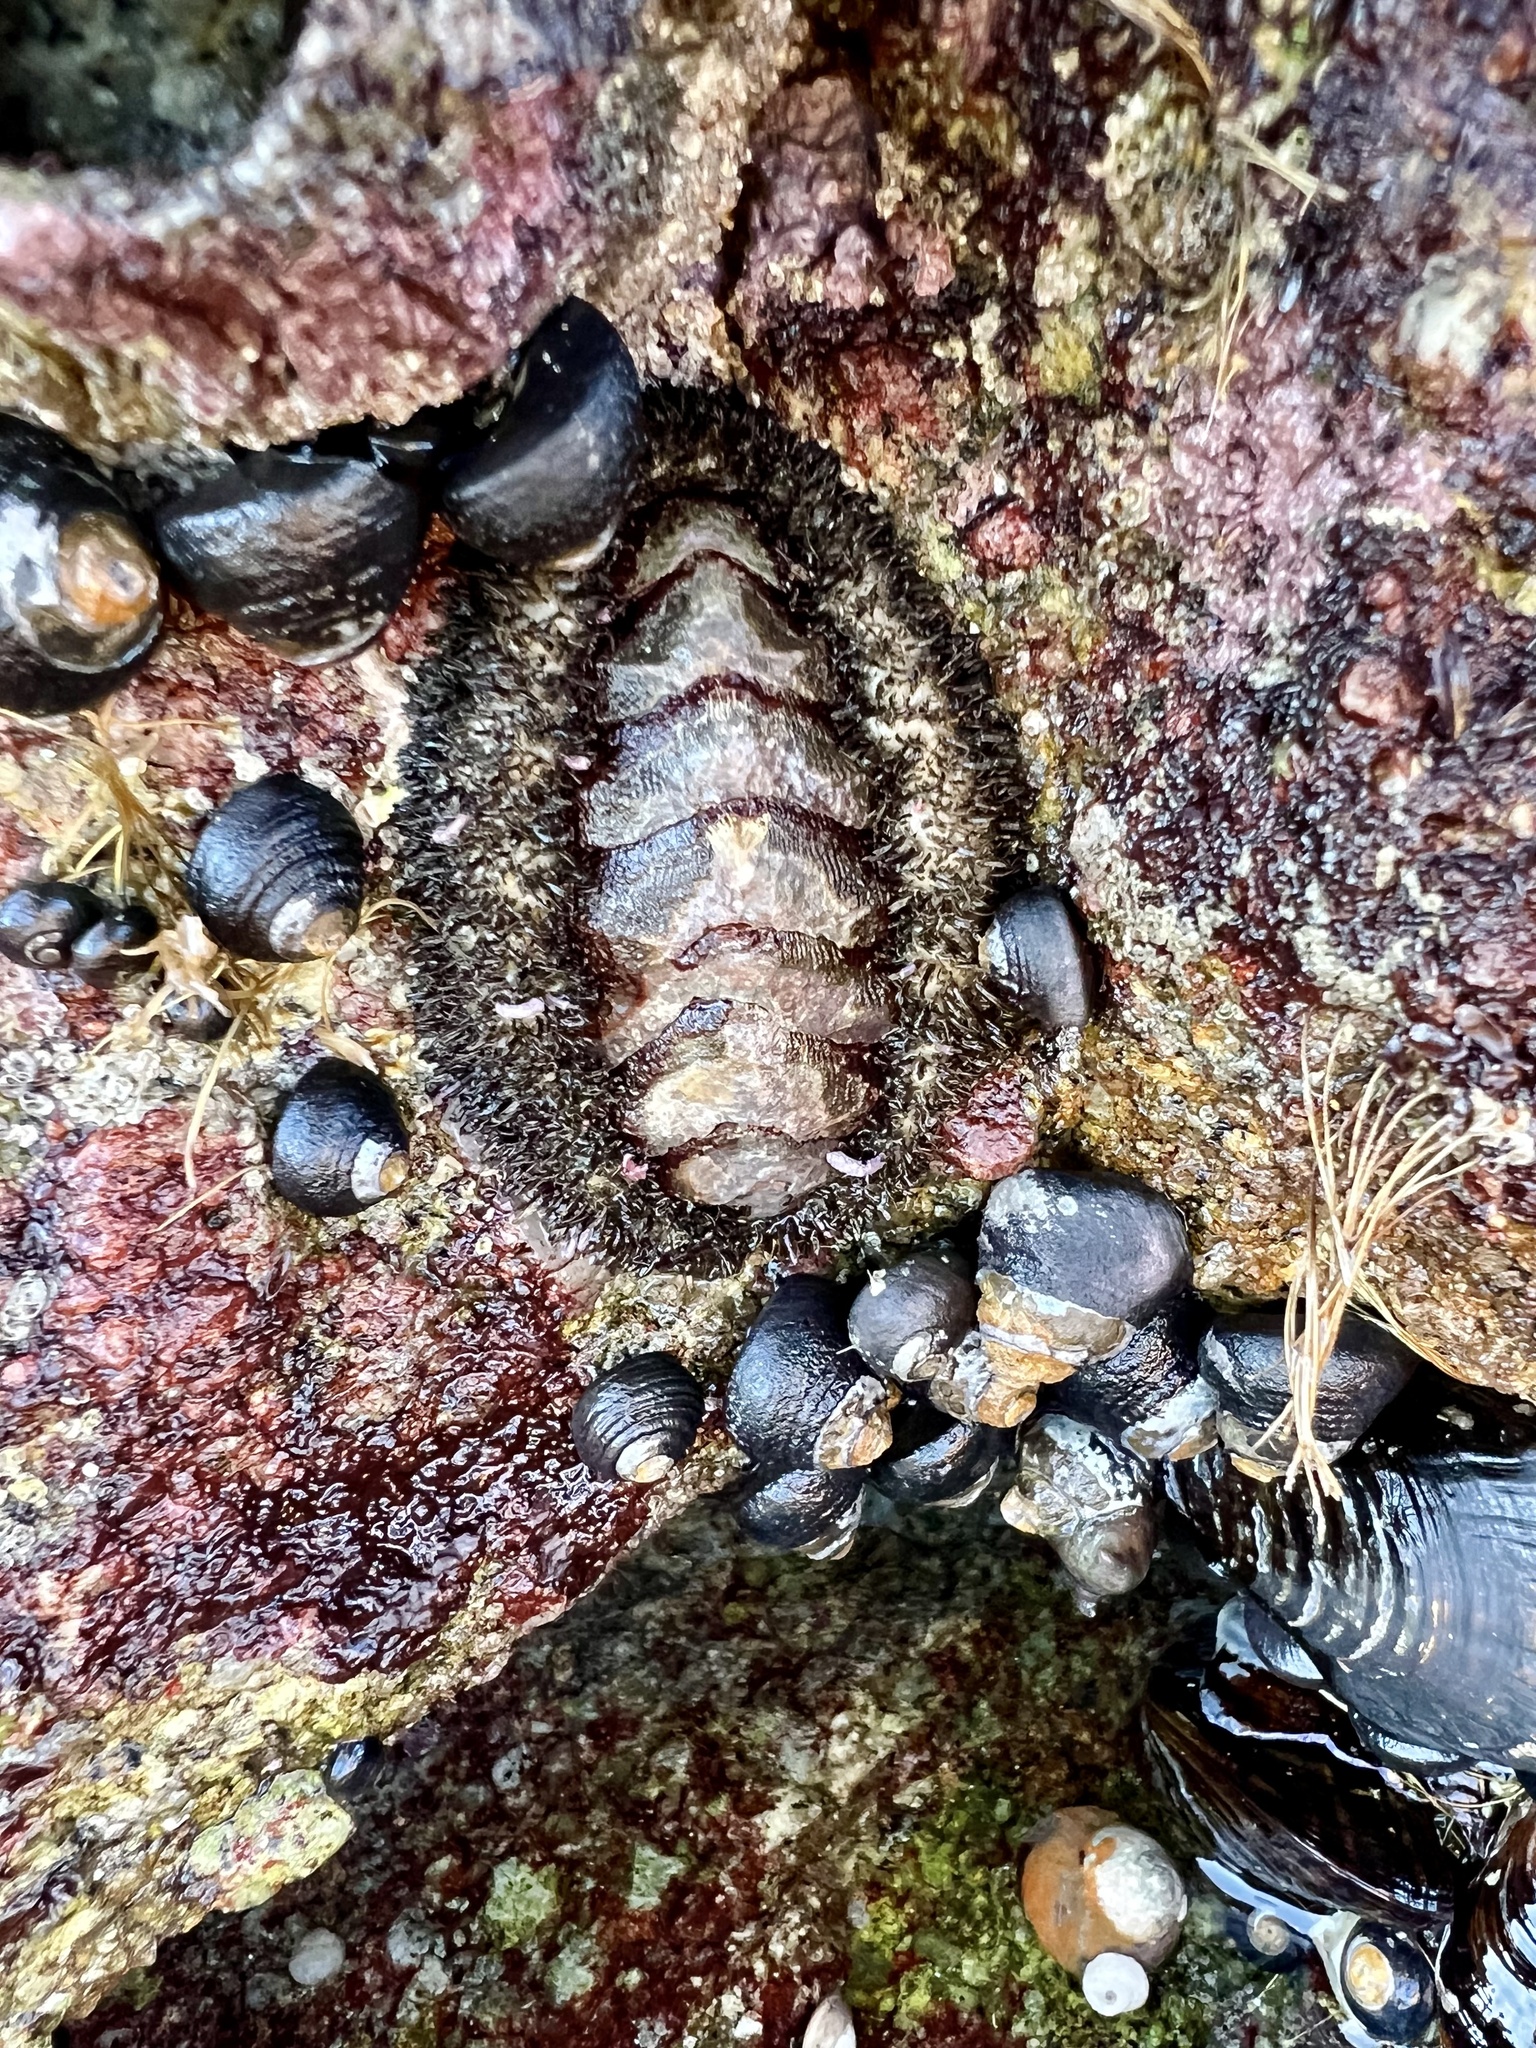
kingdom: Animalia
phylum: Mollusca
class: Polyplacophora
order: Chitonida
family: Mopaliidae
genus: Mopalia
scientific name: Mopalia muscosa
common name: Mossy chiton
